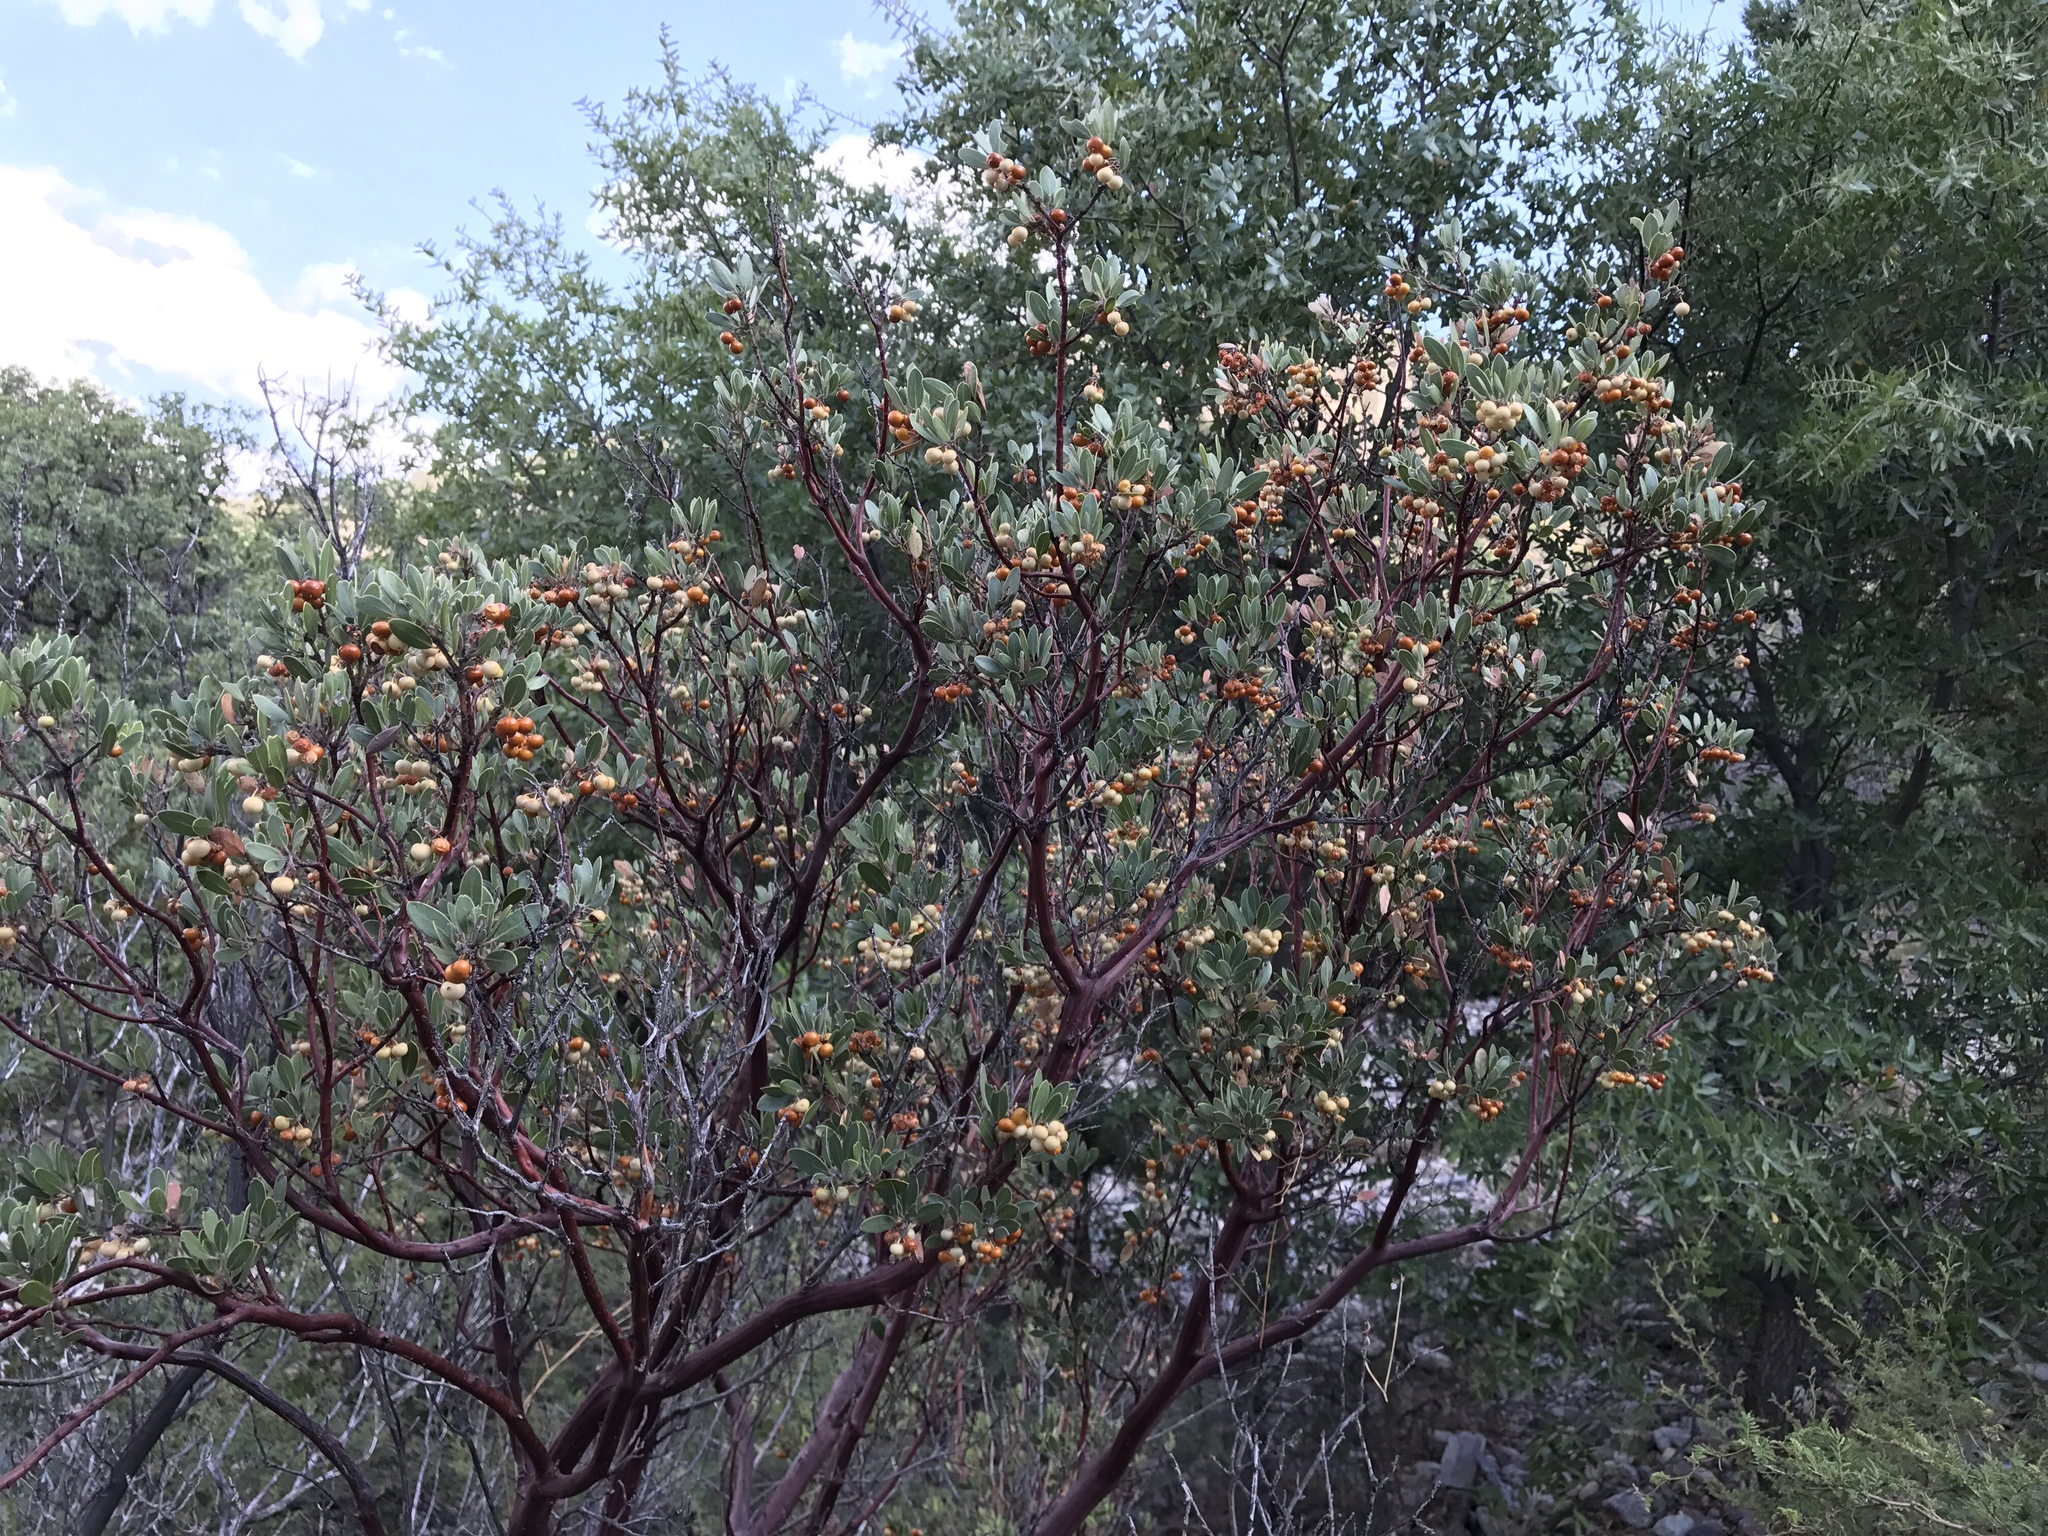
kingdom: Plantae
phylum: Tracheophyta
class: Magnoliopsida
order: Ericales
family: Ericaceae
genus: Arctostaphylos
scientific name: Arctostaphylos pungens
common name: Mexican manzanita
